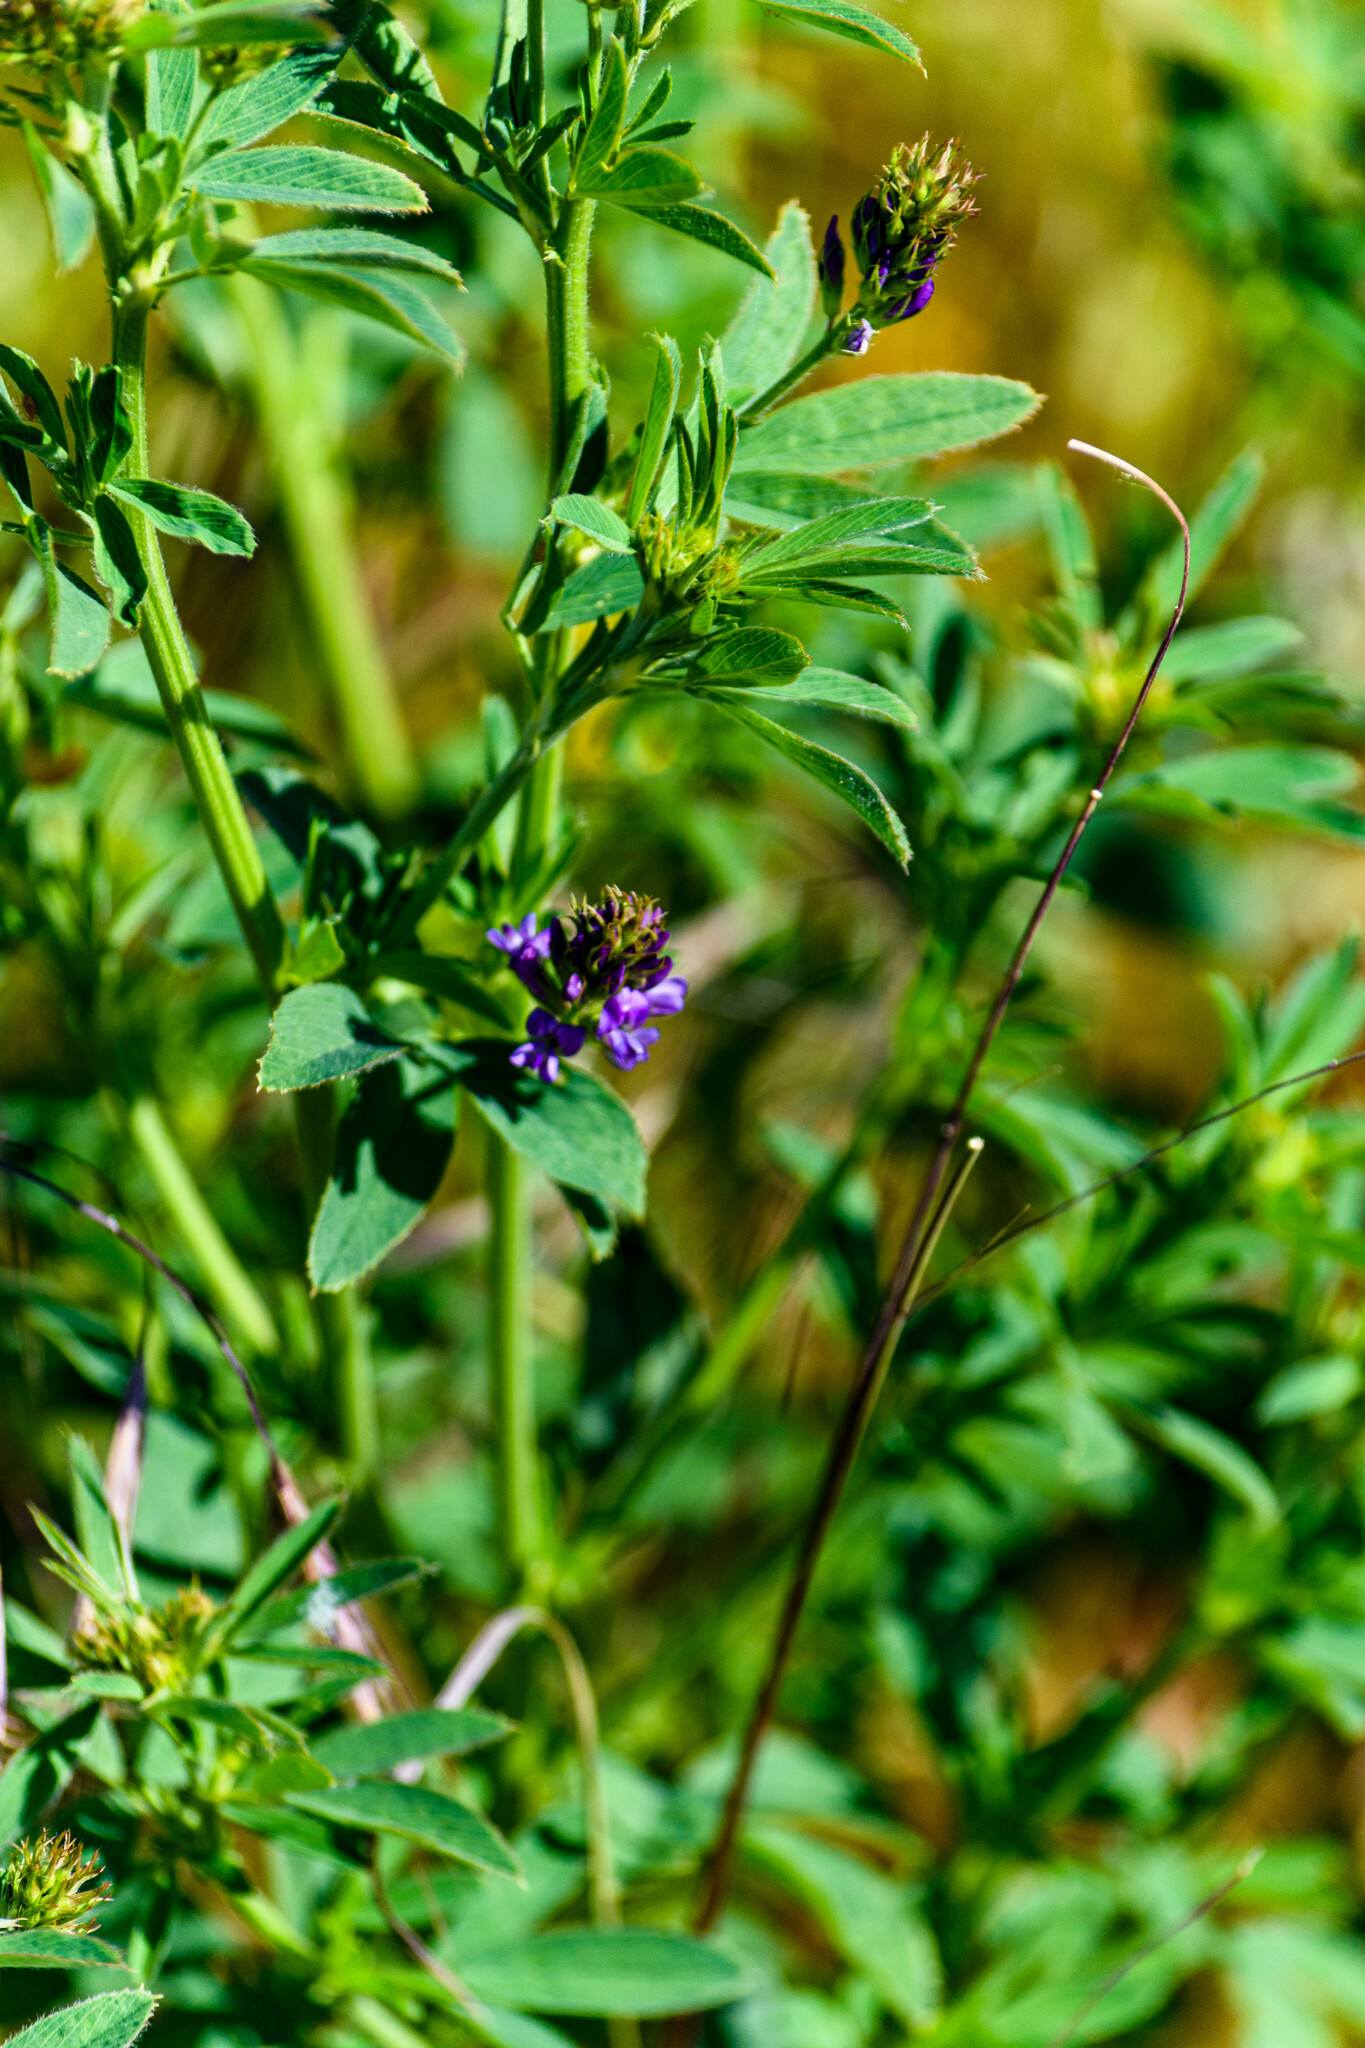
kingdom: Plantae
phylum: Tracheophyta
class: Magnoliopsida
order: Fabales
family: Fabaceae
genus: Medicago
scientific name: Medicago sativa
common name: Alfalfa
